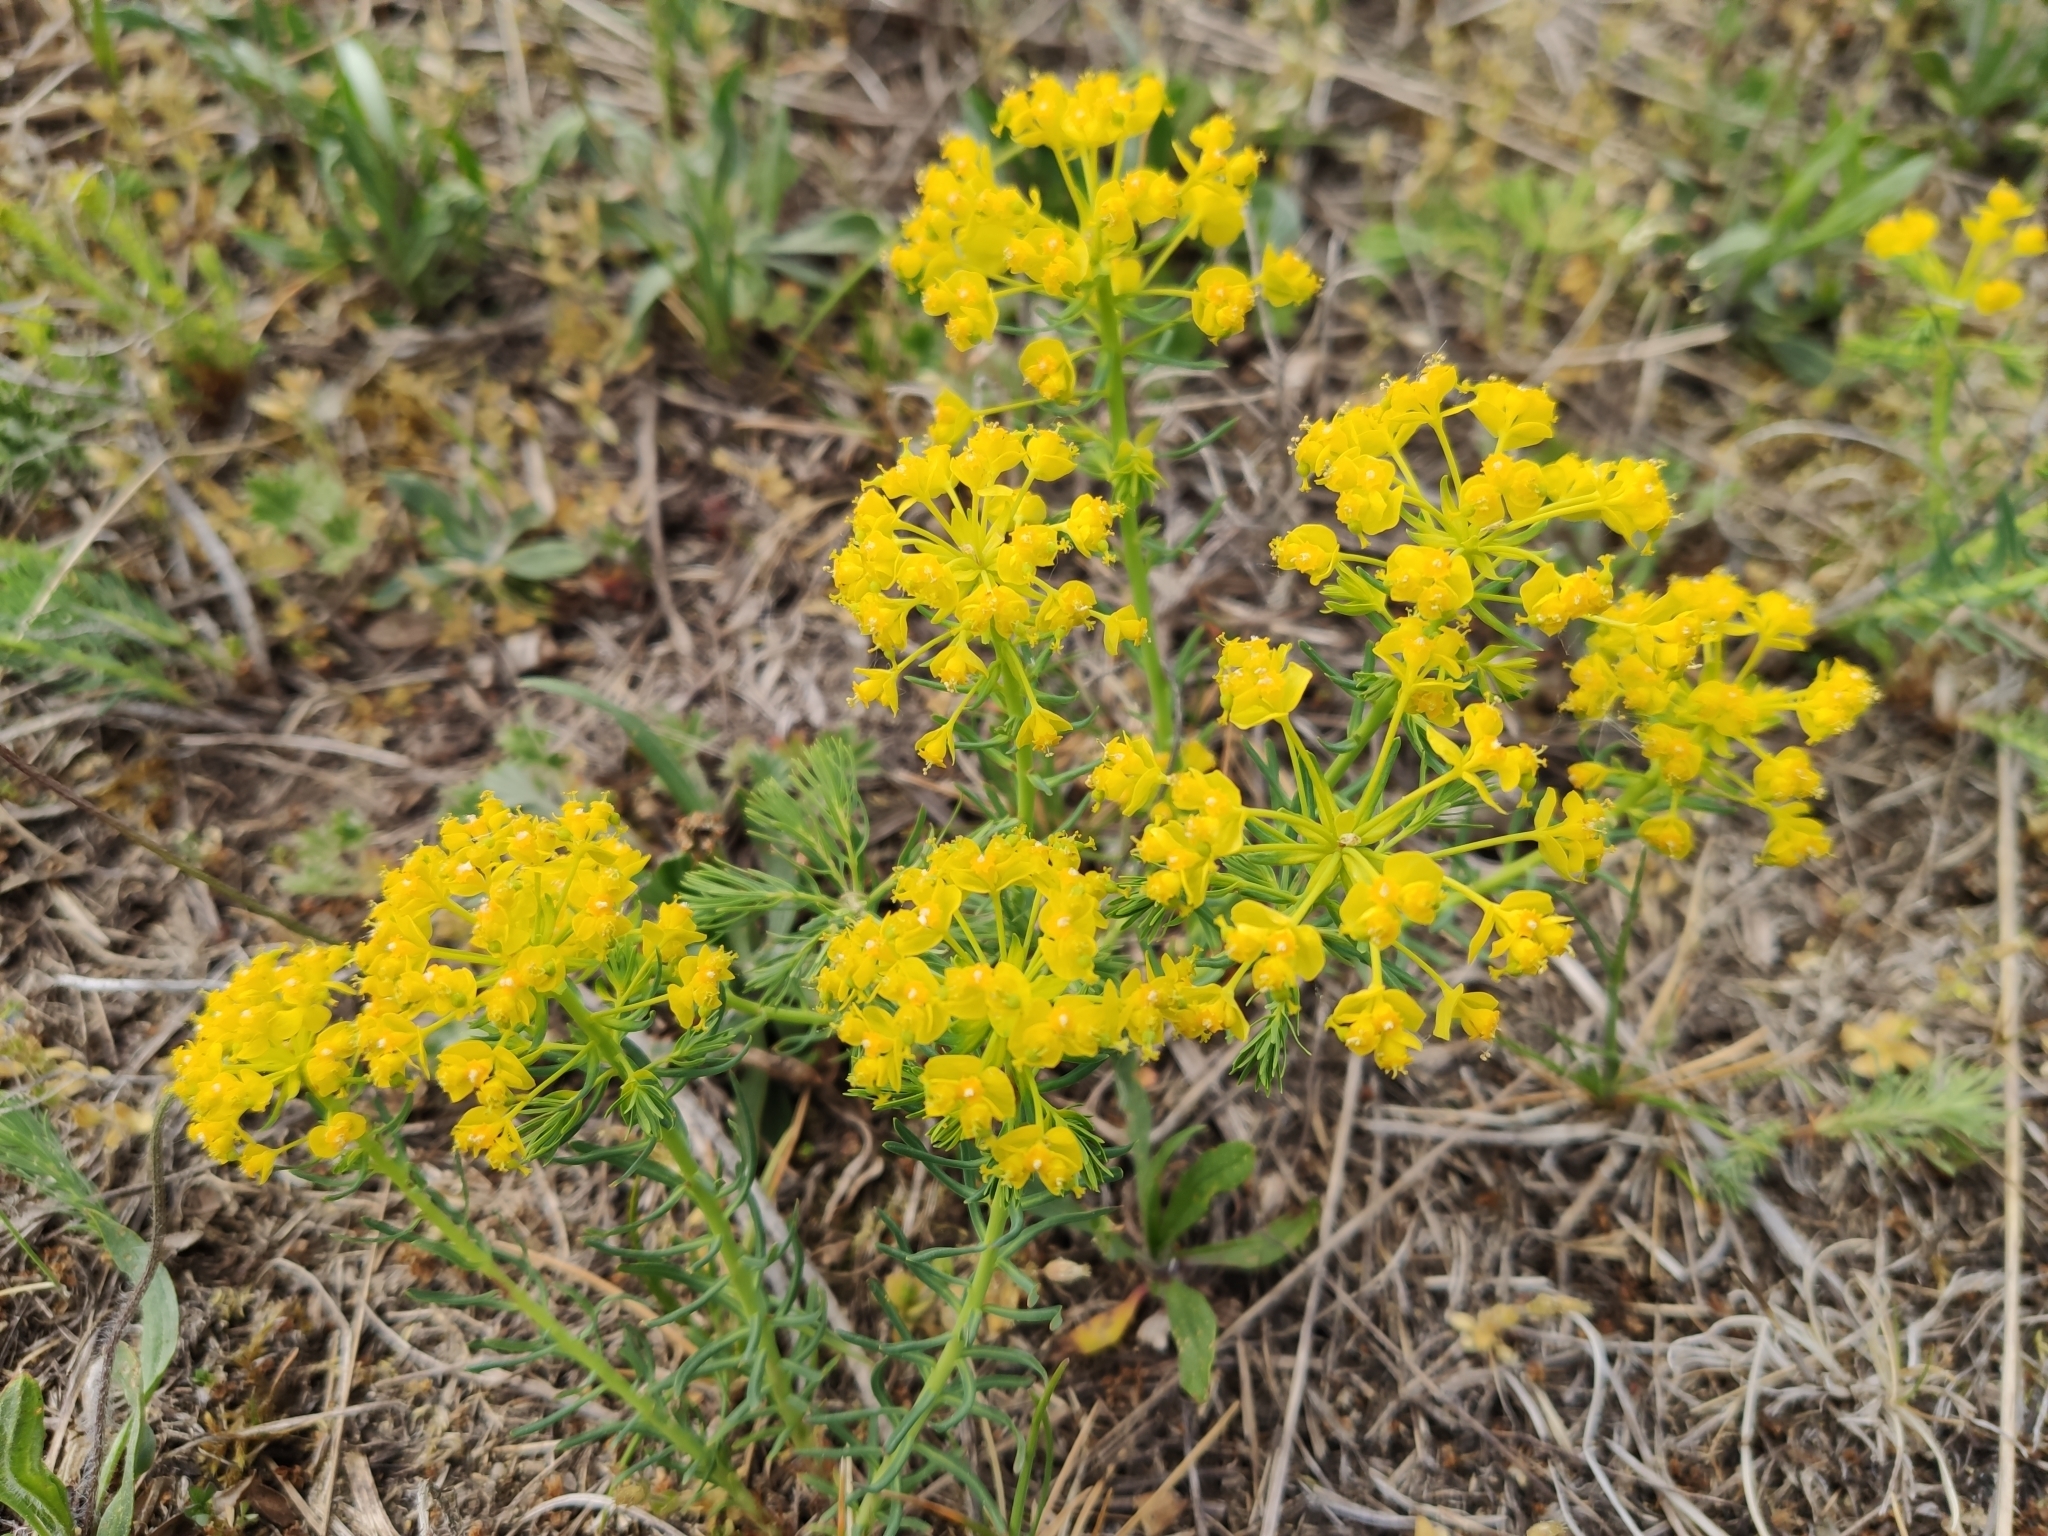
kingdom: Plantae
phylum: Tracheophyta
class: Magnoliopsida
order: Malpighiales
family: Euphorbiaceae
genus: Euphorbia
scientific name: Euphorbia cyparissias
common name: Cypress spurge
